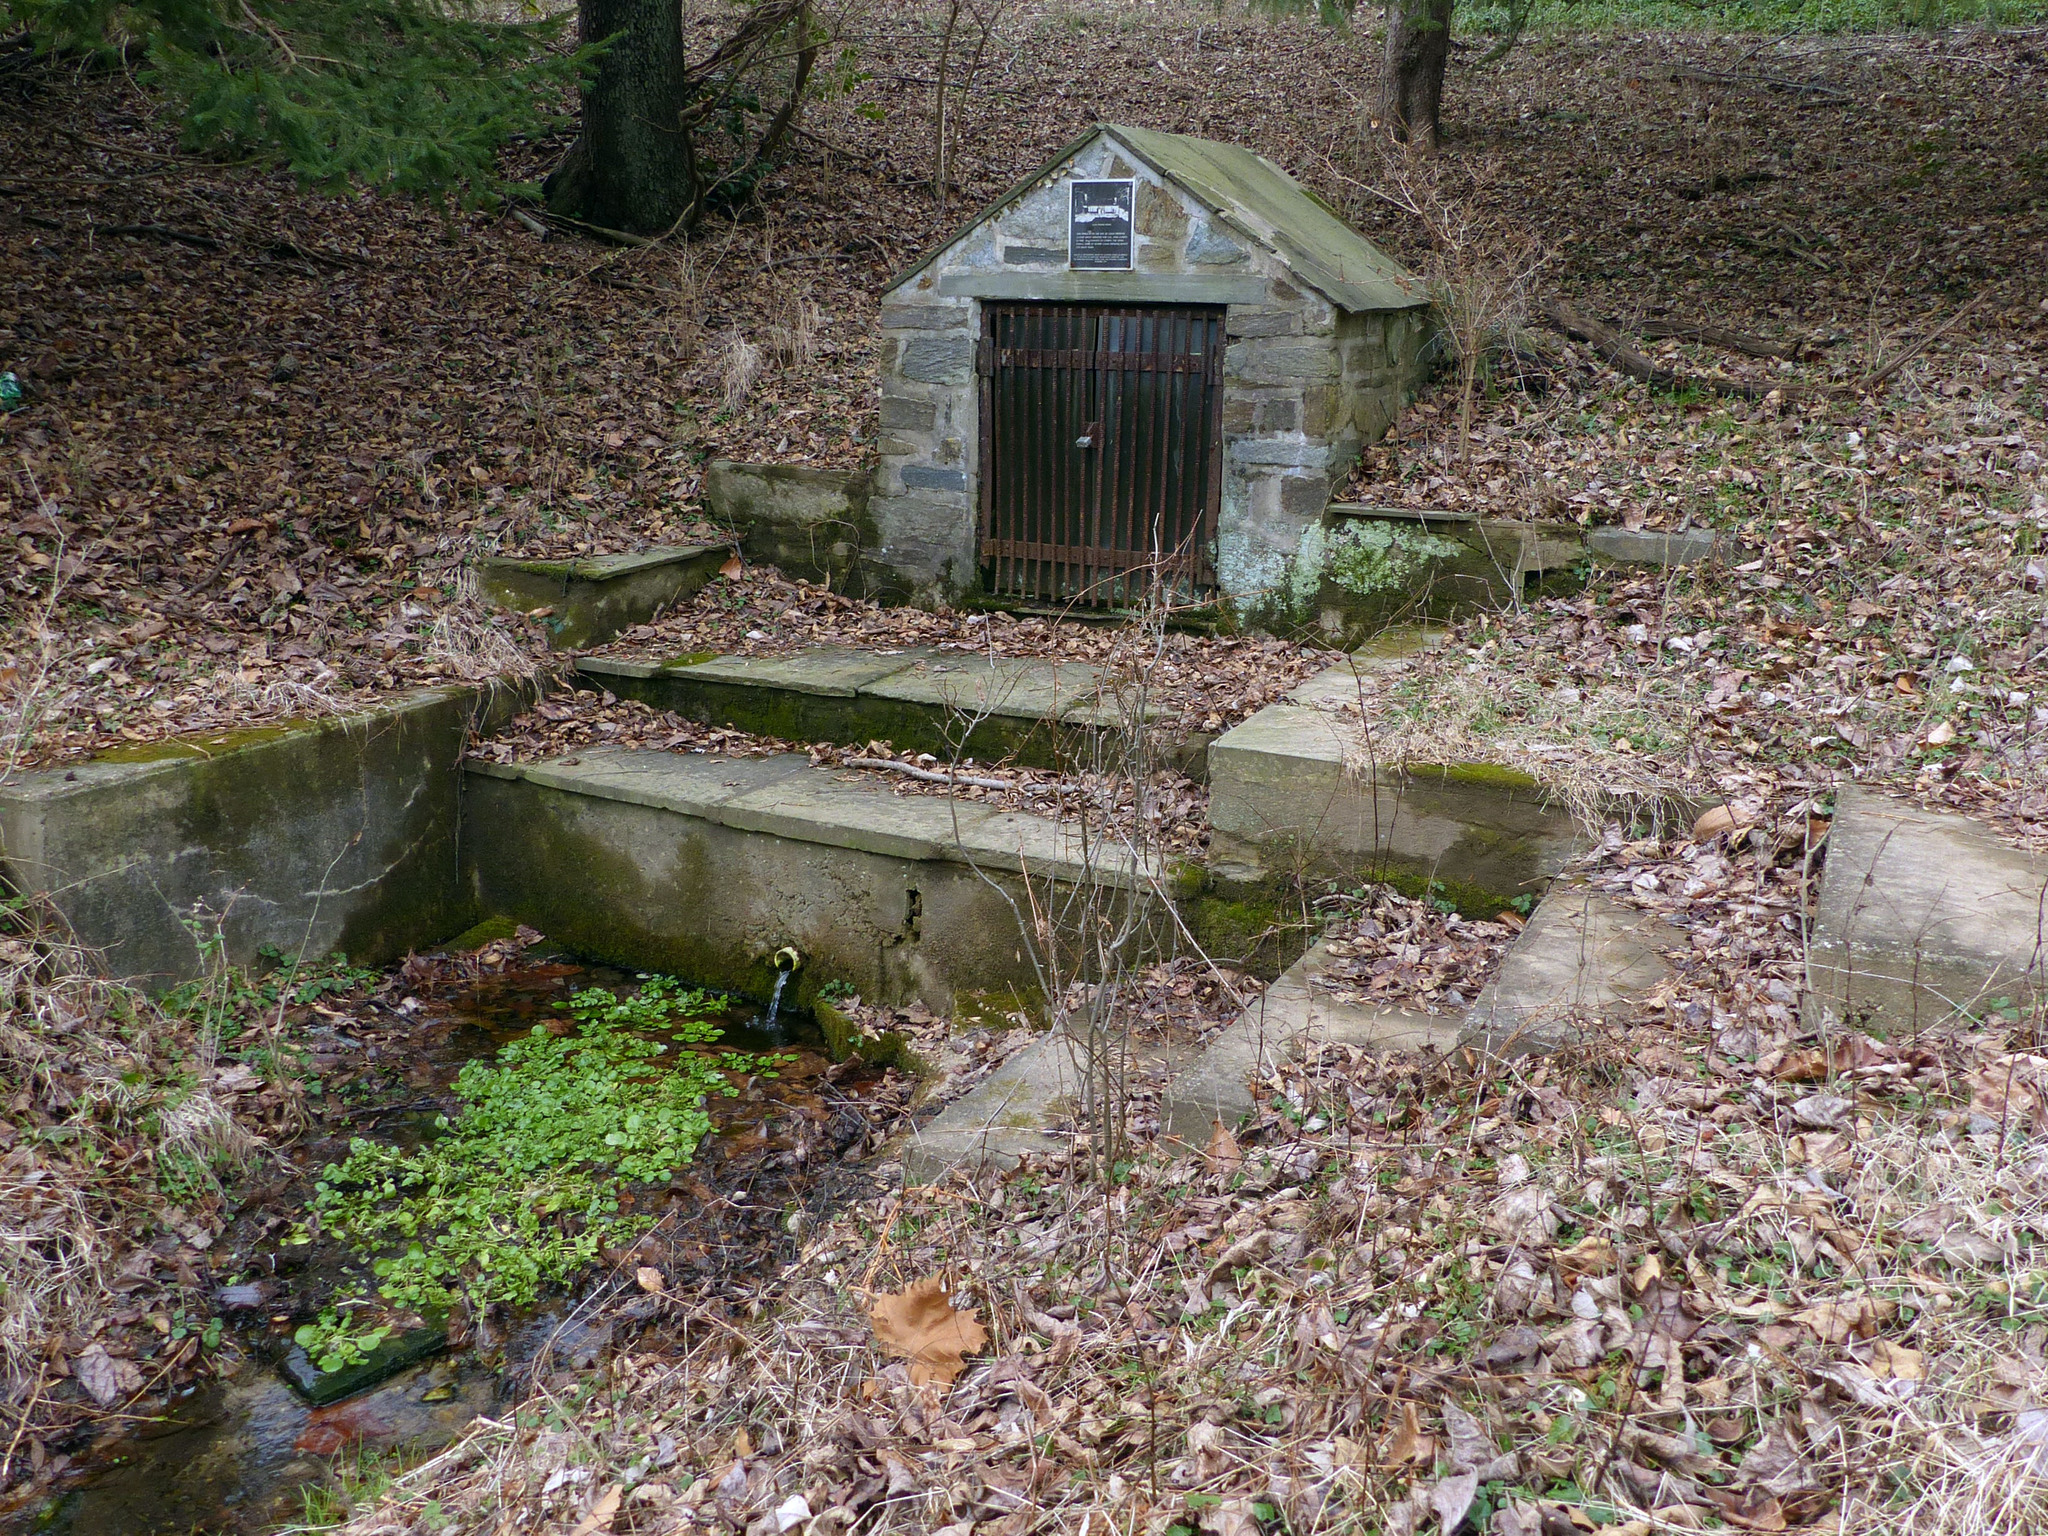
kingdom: Plantae
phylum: Tracheophyta
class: Magnoliopsida
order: Brassicales
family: Brassicaceae
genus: Nasturtium
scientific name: Nasturtium officinale
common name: Watercress
